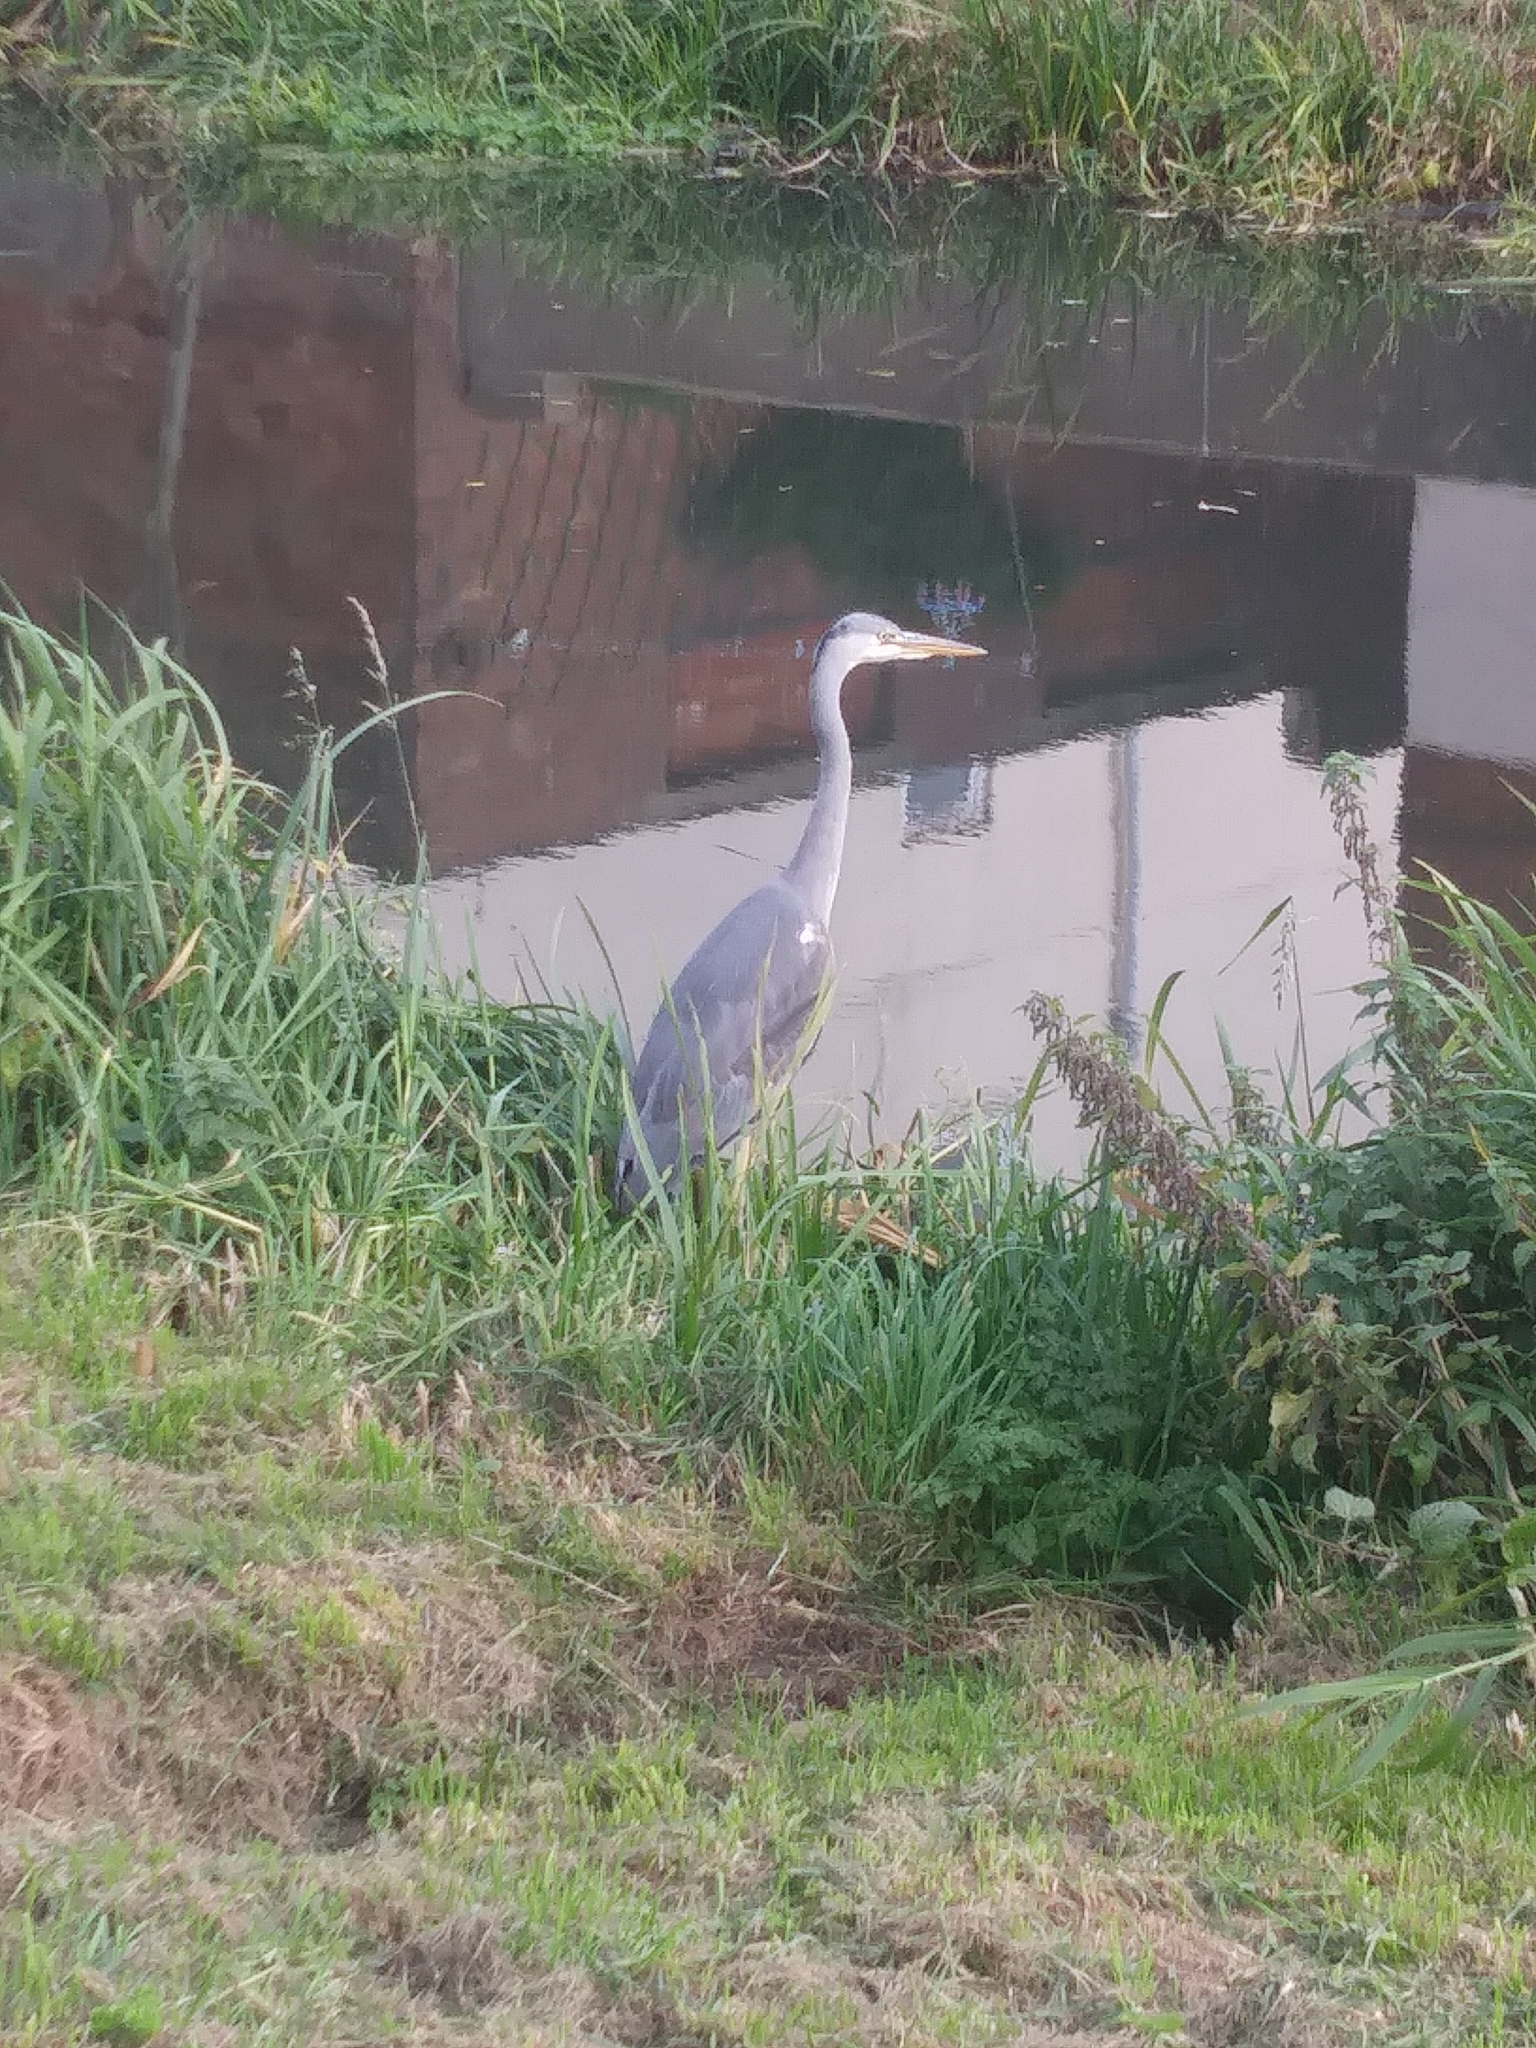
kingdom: Animalia
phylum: Chordata
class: Aves
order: Pelecaniformes
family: Ardeidae
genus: Ardea
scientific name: Ardea cinerea
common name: Grey heron
